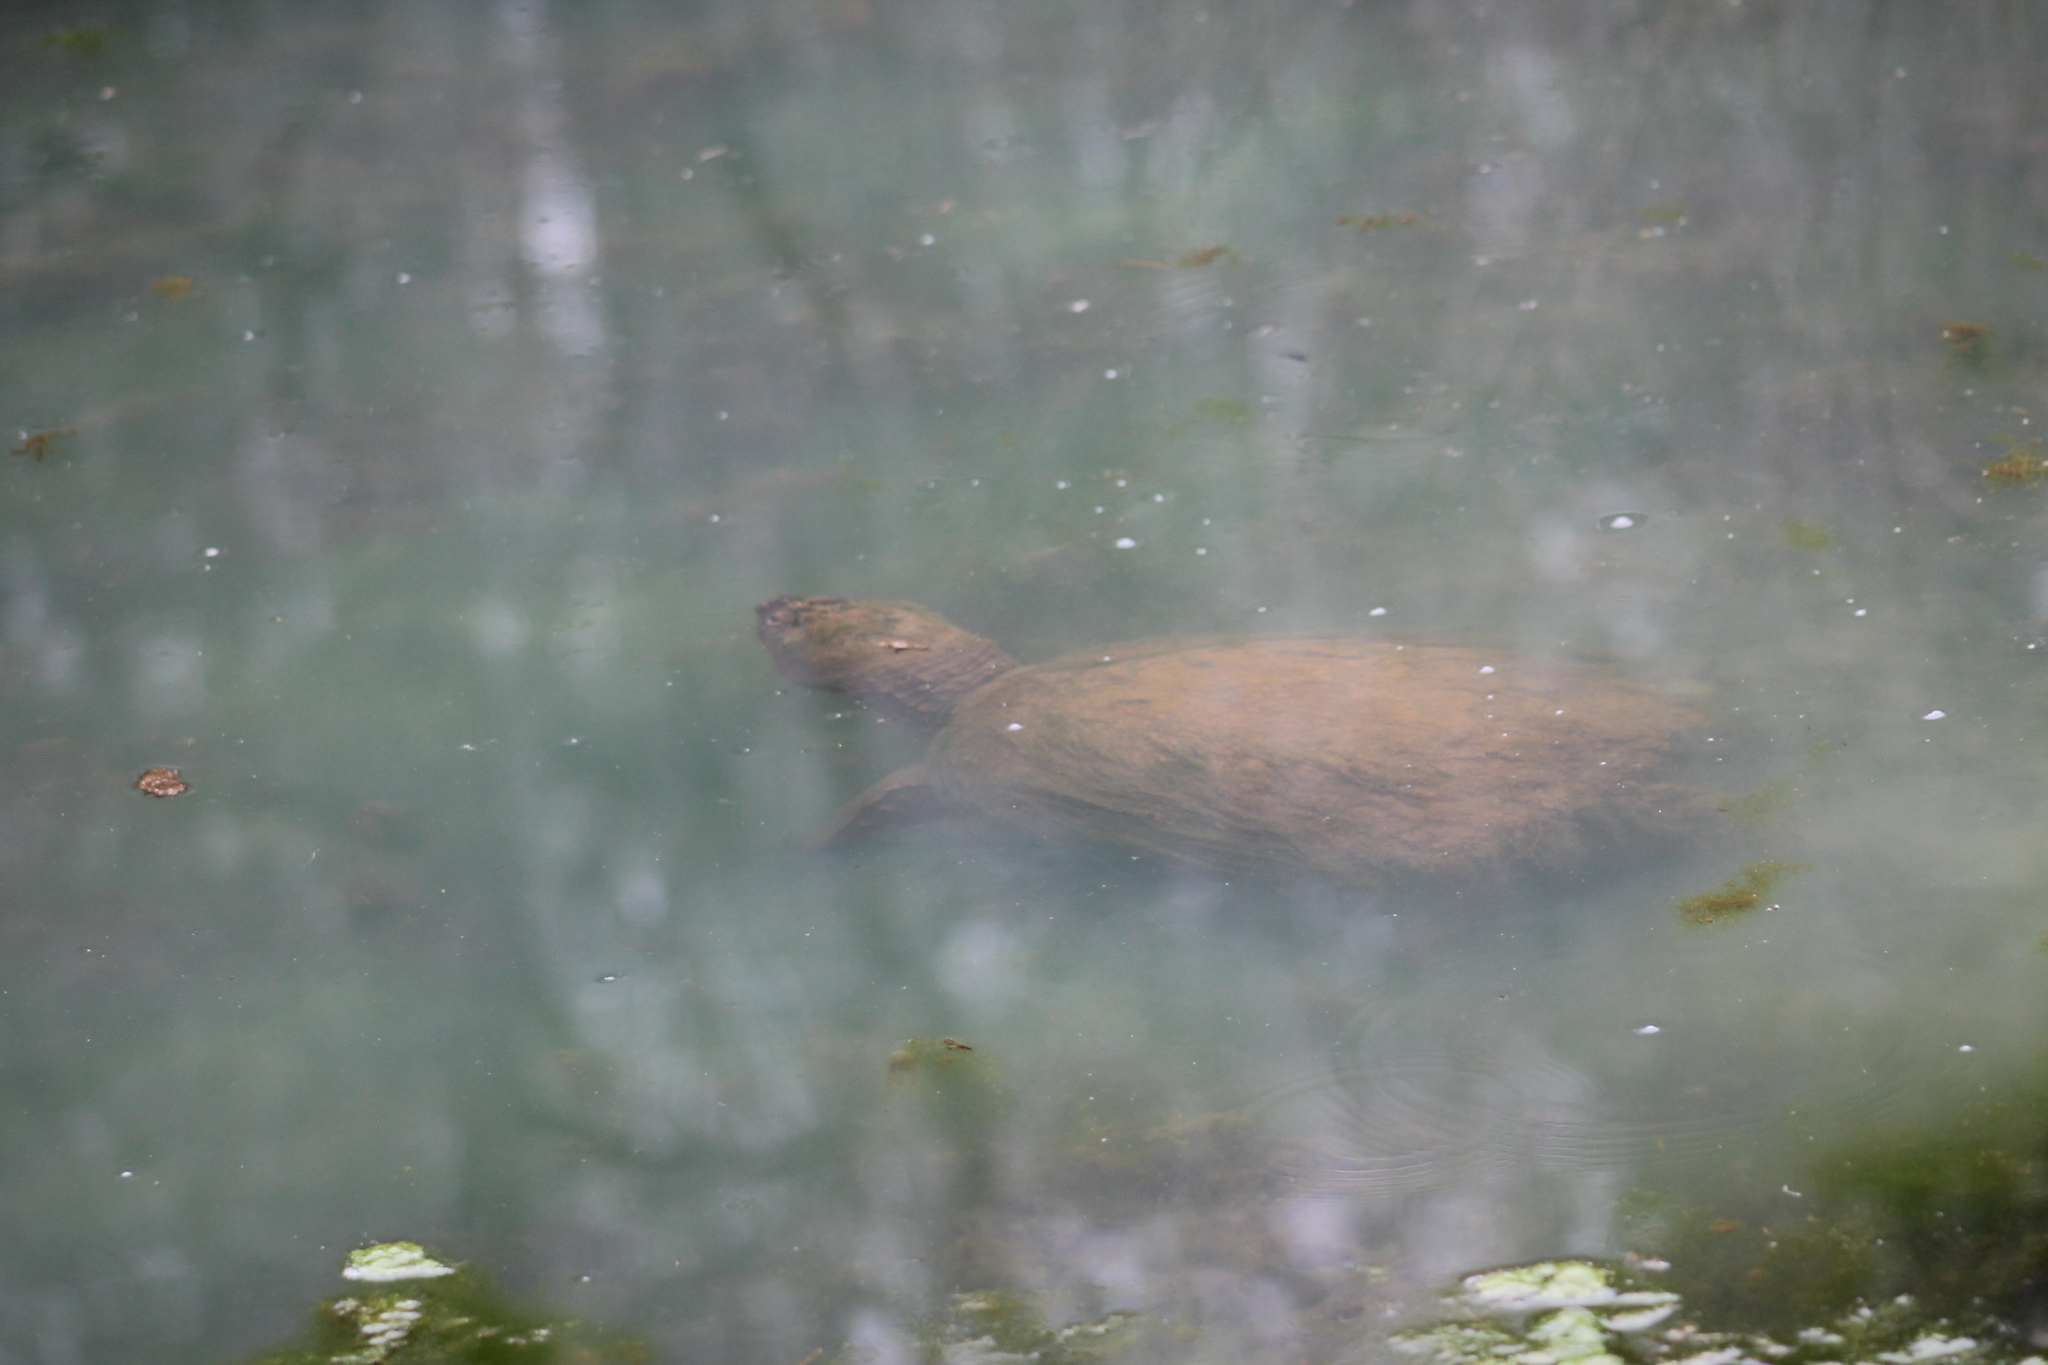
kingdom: Animalia
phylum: Chordata
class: Testudines
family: Chelydridae
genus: Chelydra
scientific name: Chelydra serpentina
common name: Common snapping turtle
